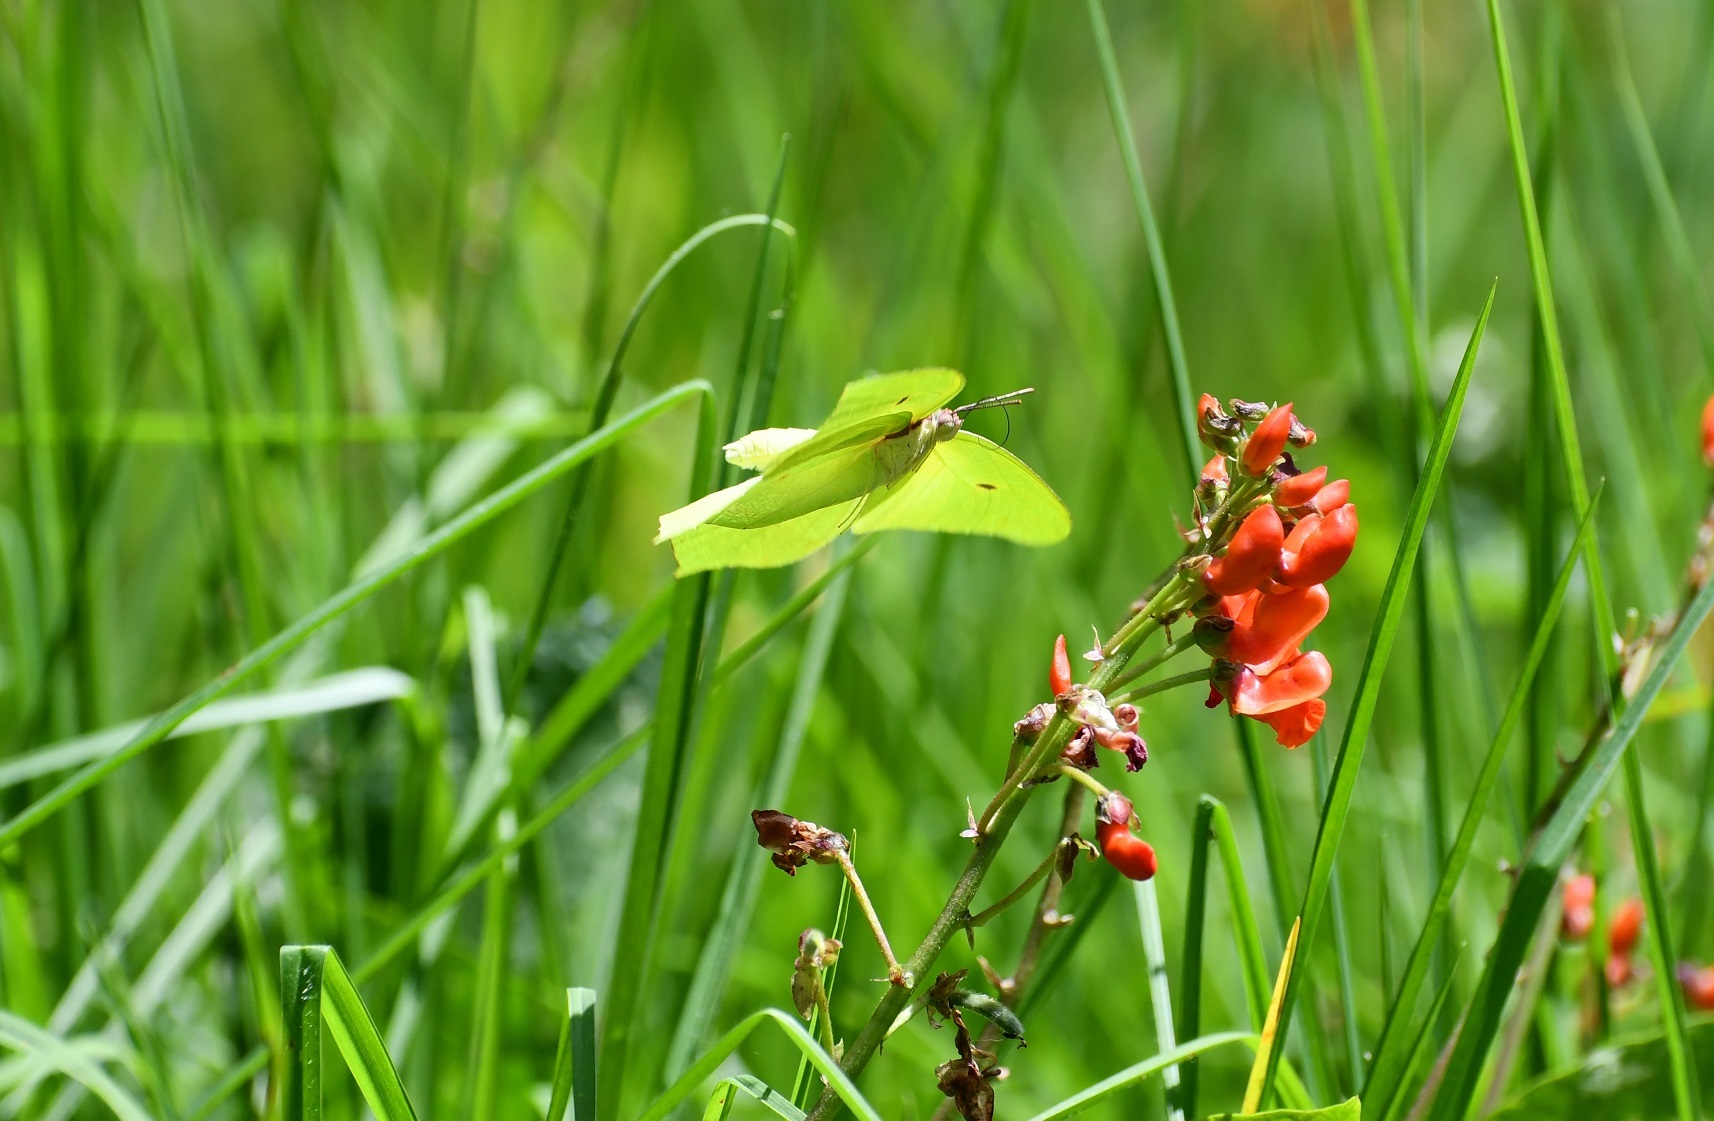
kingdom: Animalia
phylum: Arthropoda
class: Insecta
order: Lepidoptera
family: Pieridae
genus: Anteos
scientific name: Anteos maerula
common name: Angled sulphur
